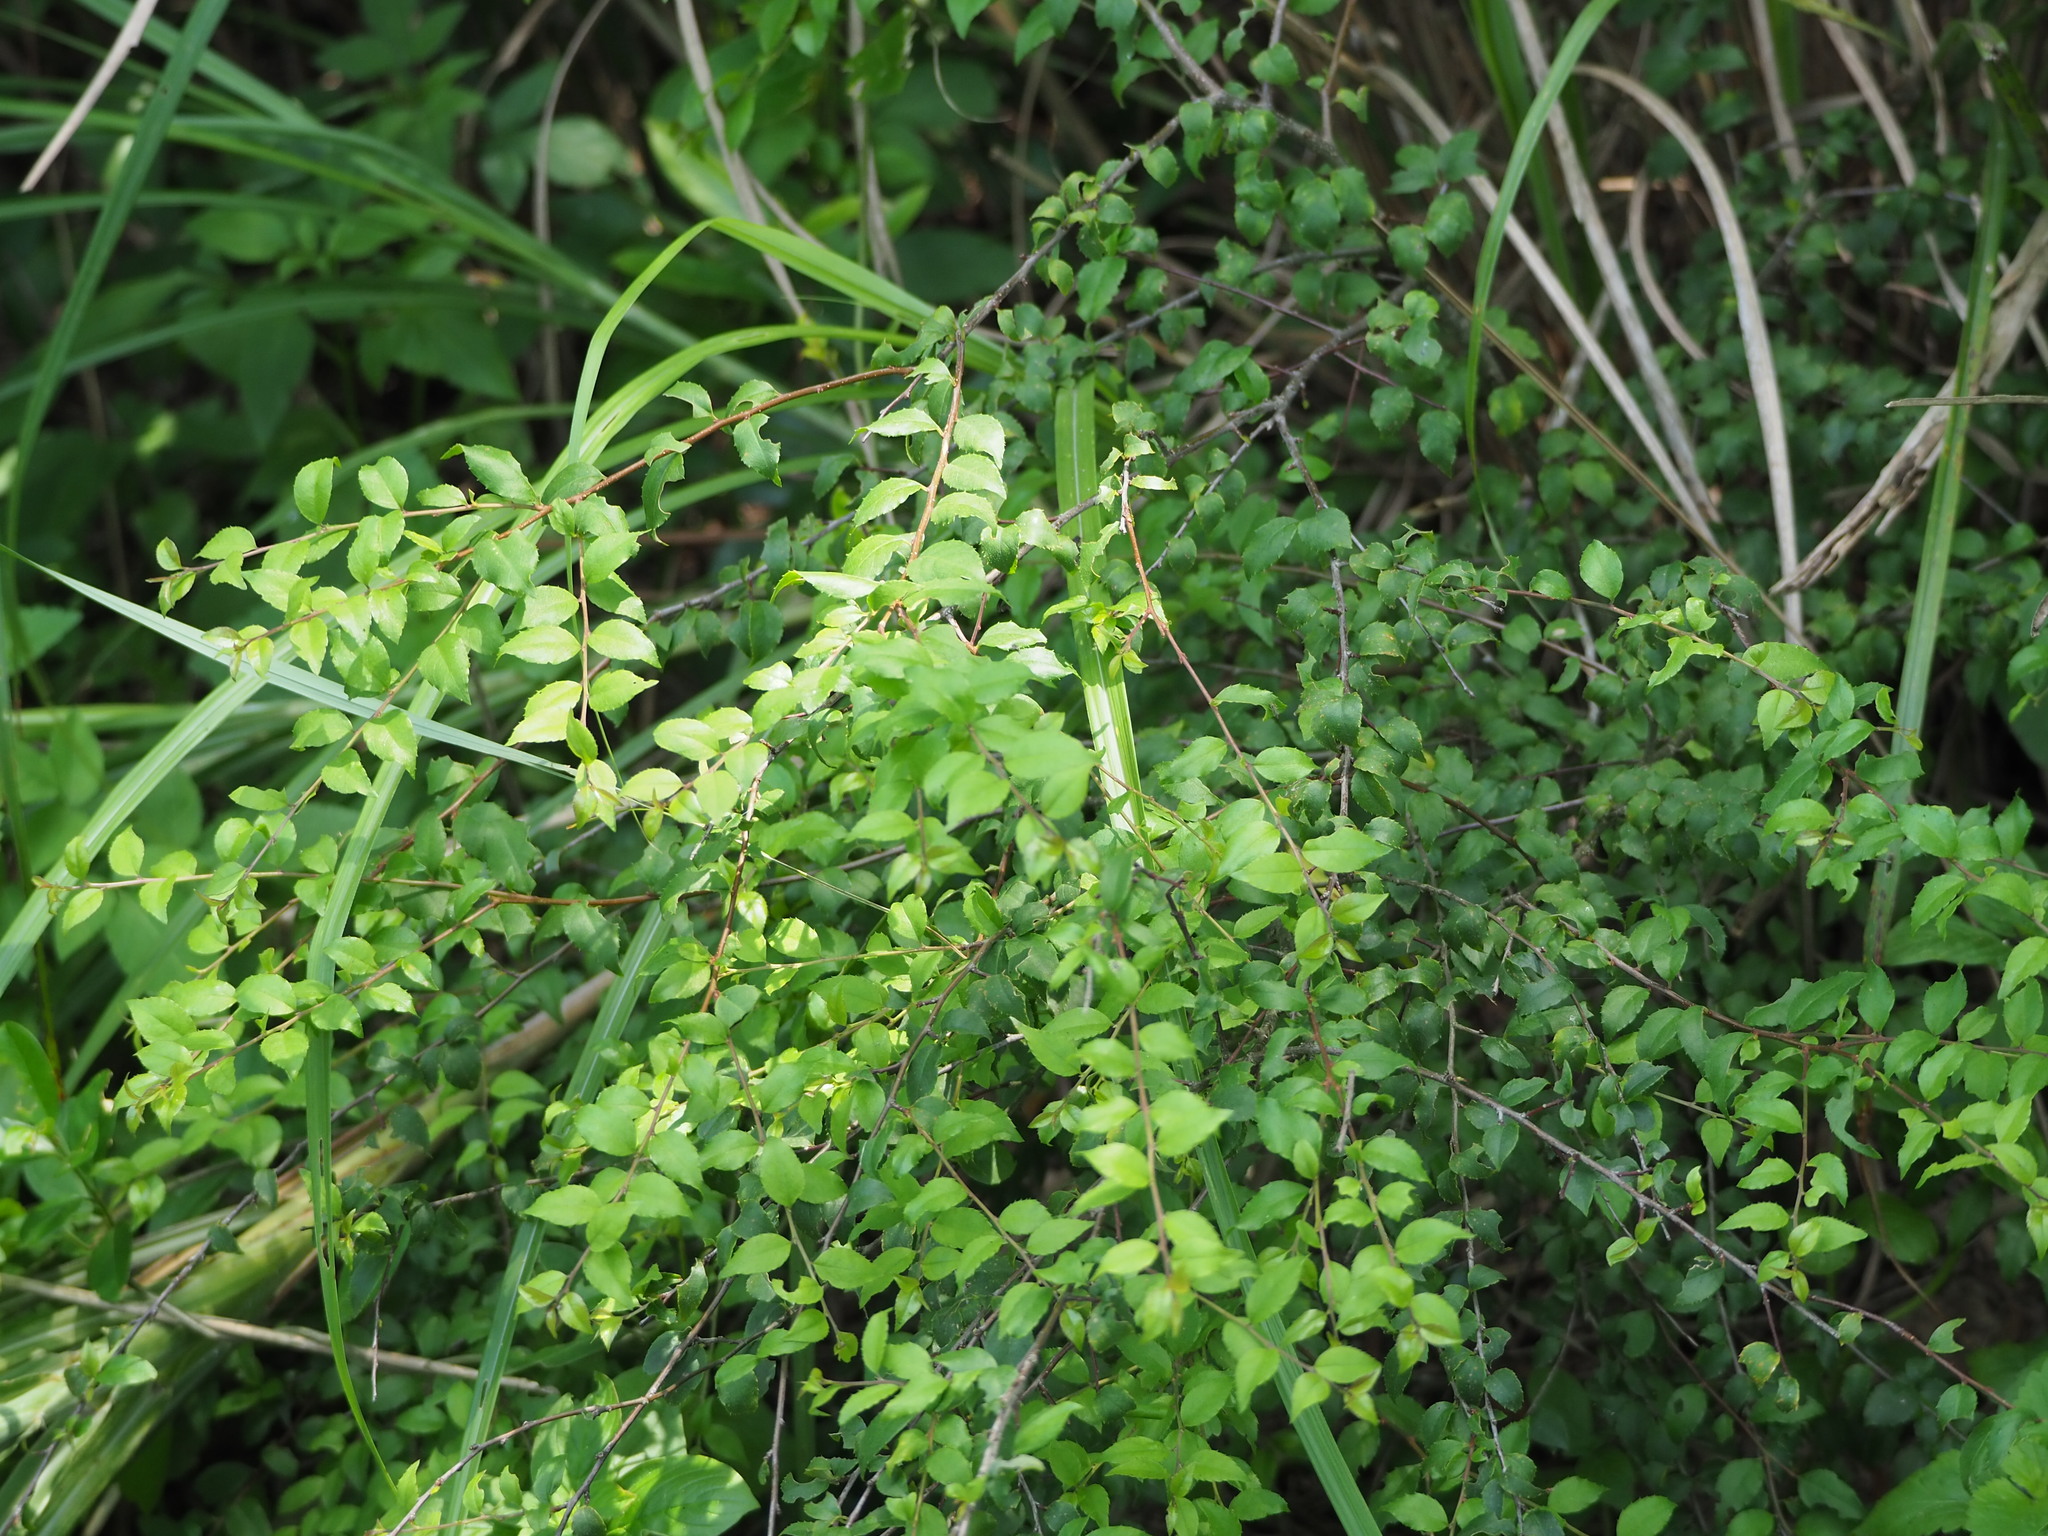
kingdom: Plantae
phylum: Tracheophyta
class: Magnoliopsida
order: Aquifoliales
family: Aquifoliaceae
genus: Ilex
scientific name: Ilex asprella
